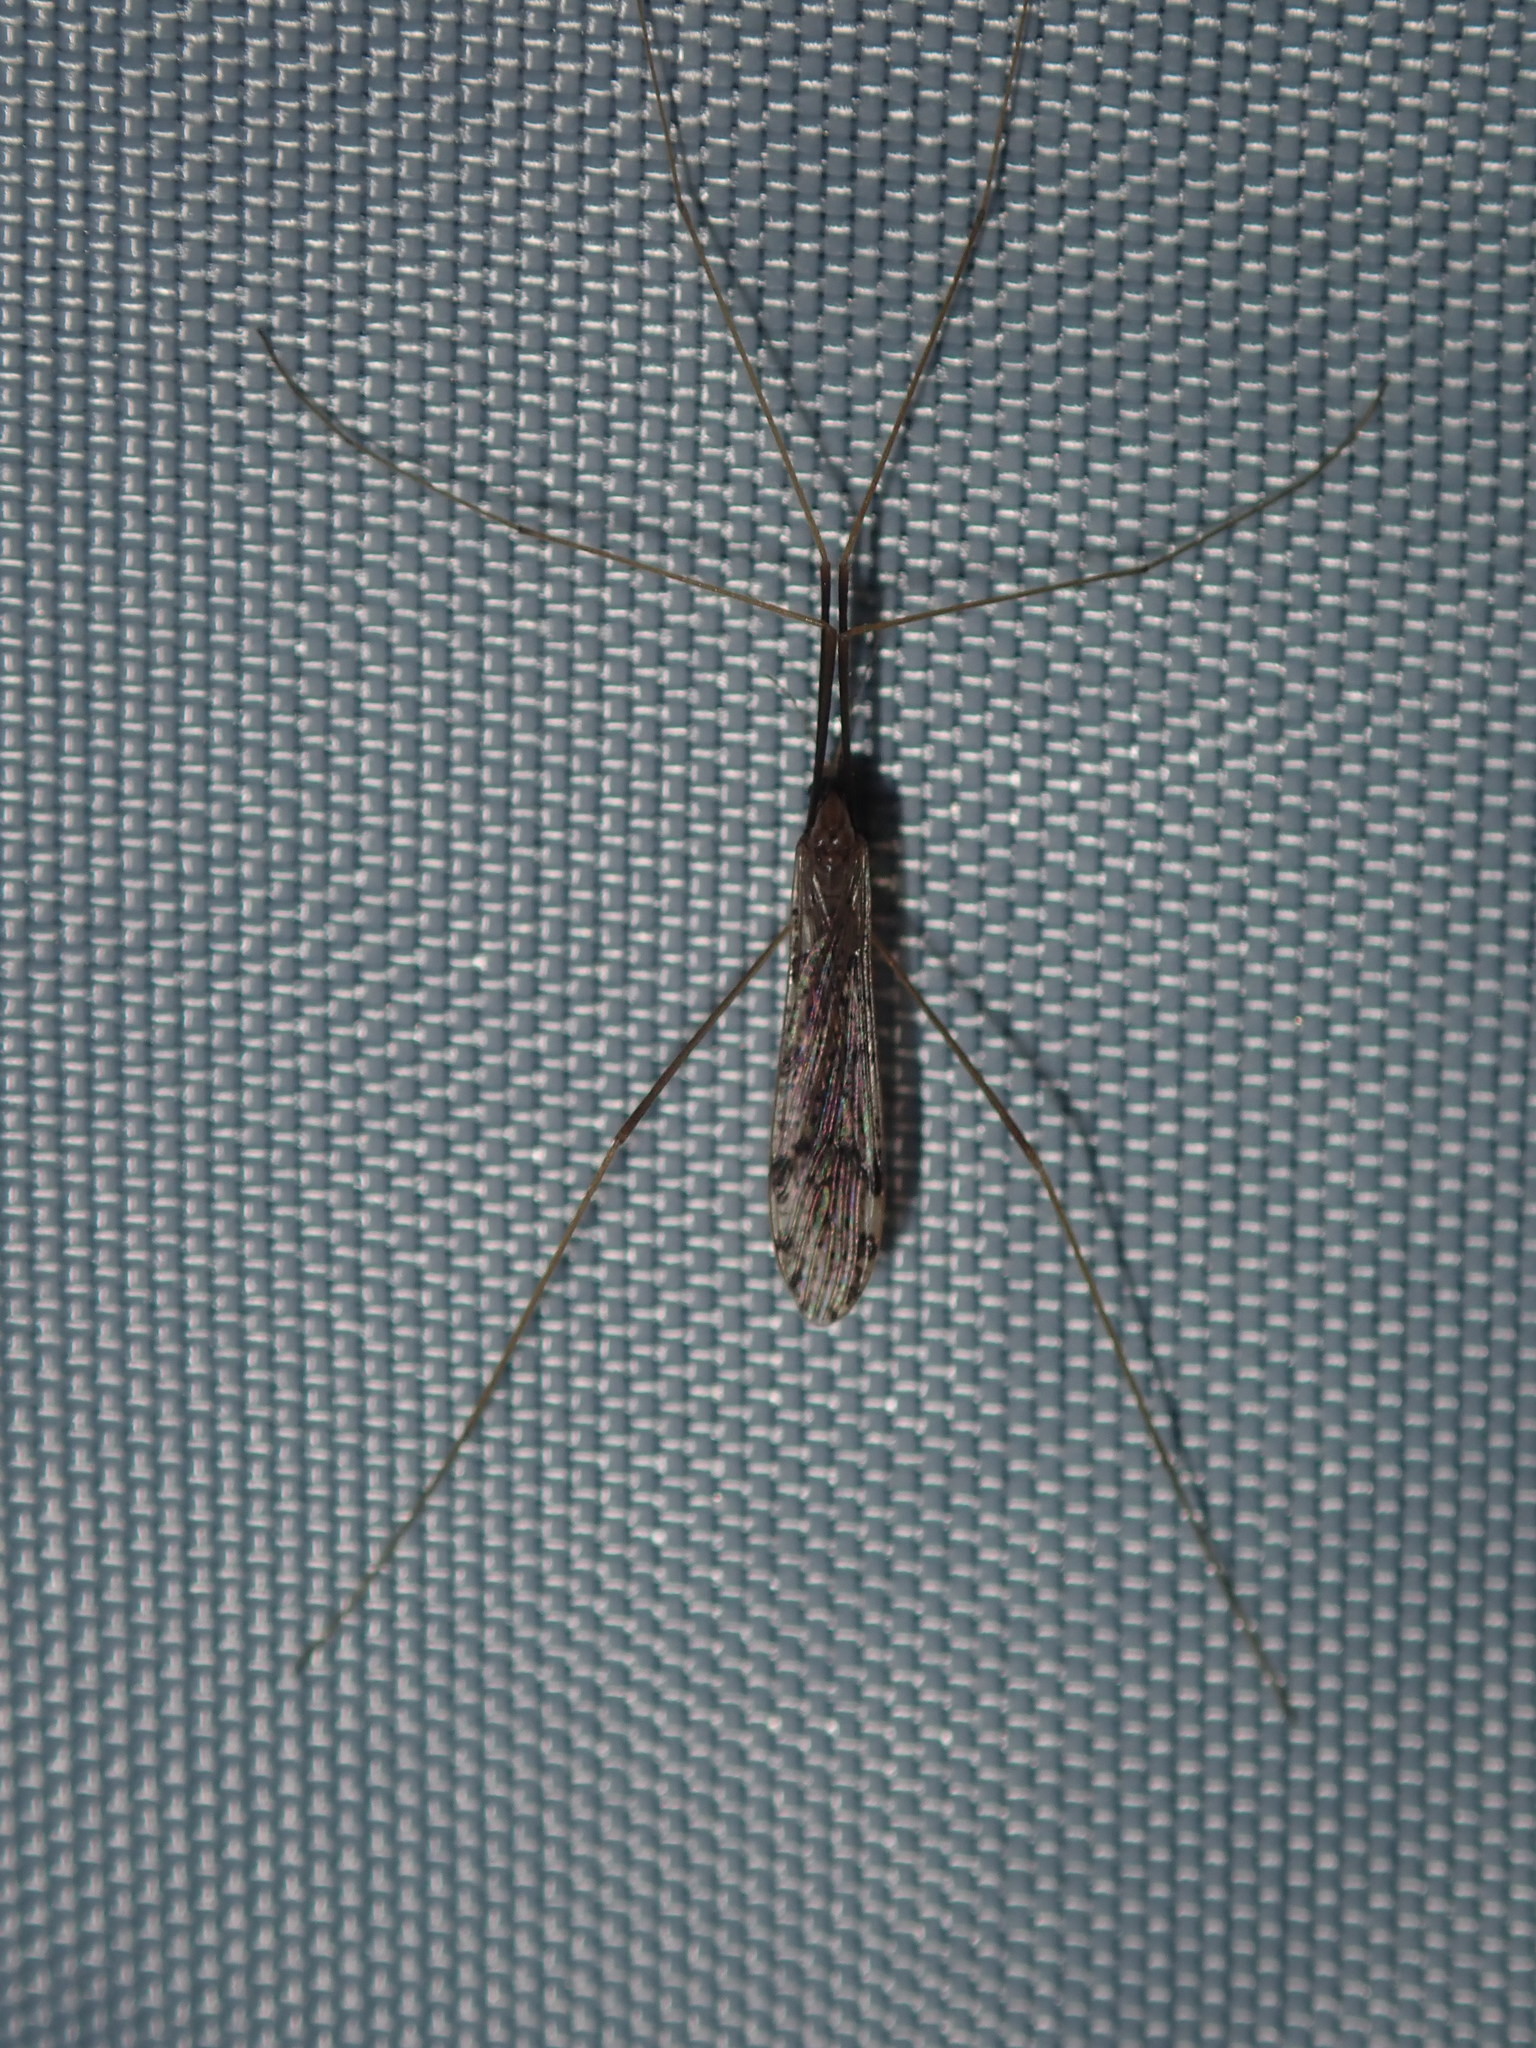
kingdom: Animalia
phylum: Arthropoda
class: Insecta
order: Diptera
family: Limoniidae
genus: Austrolimnophila
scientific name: Austrolimnophila antiqua
